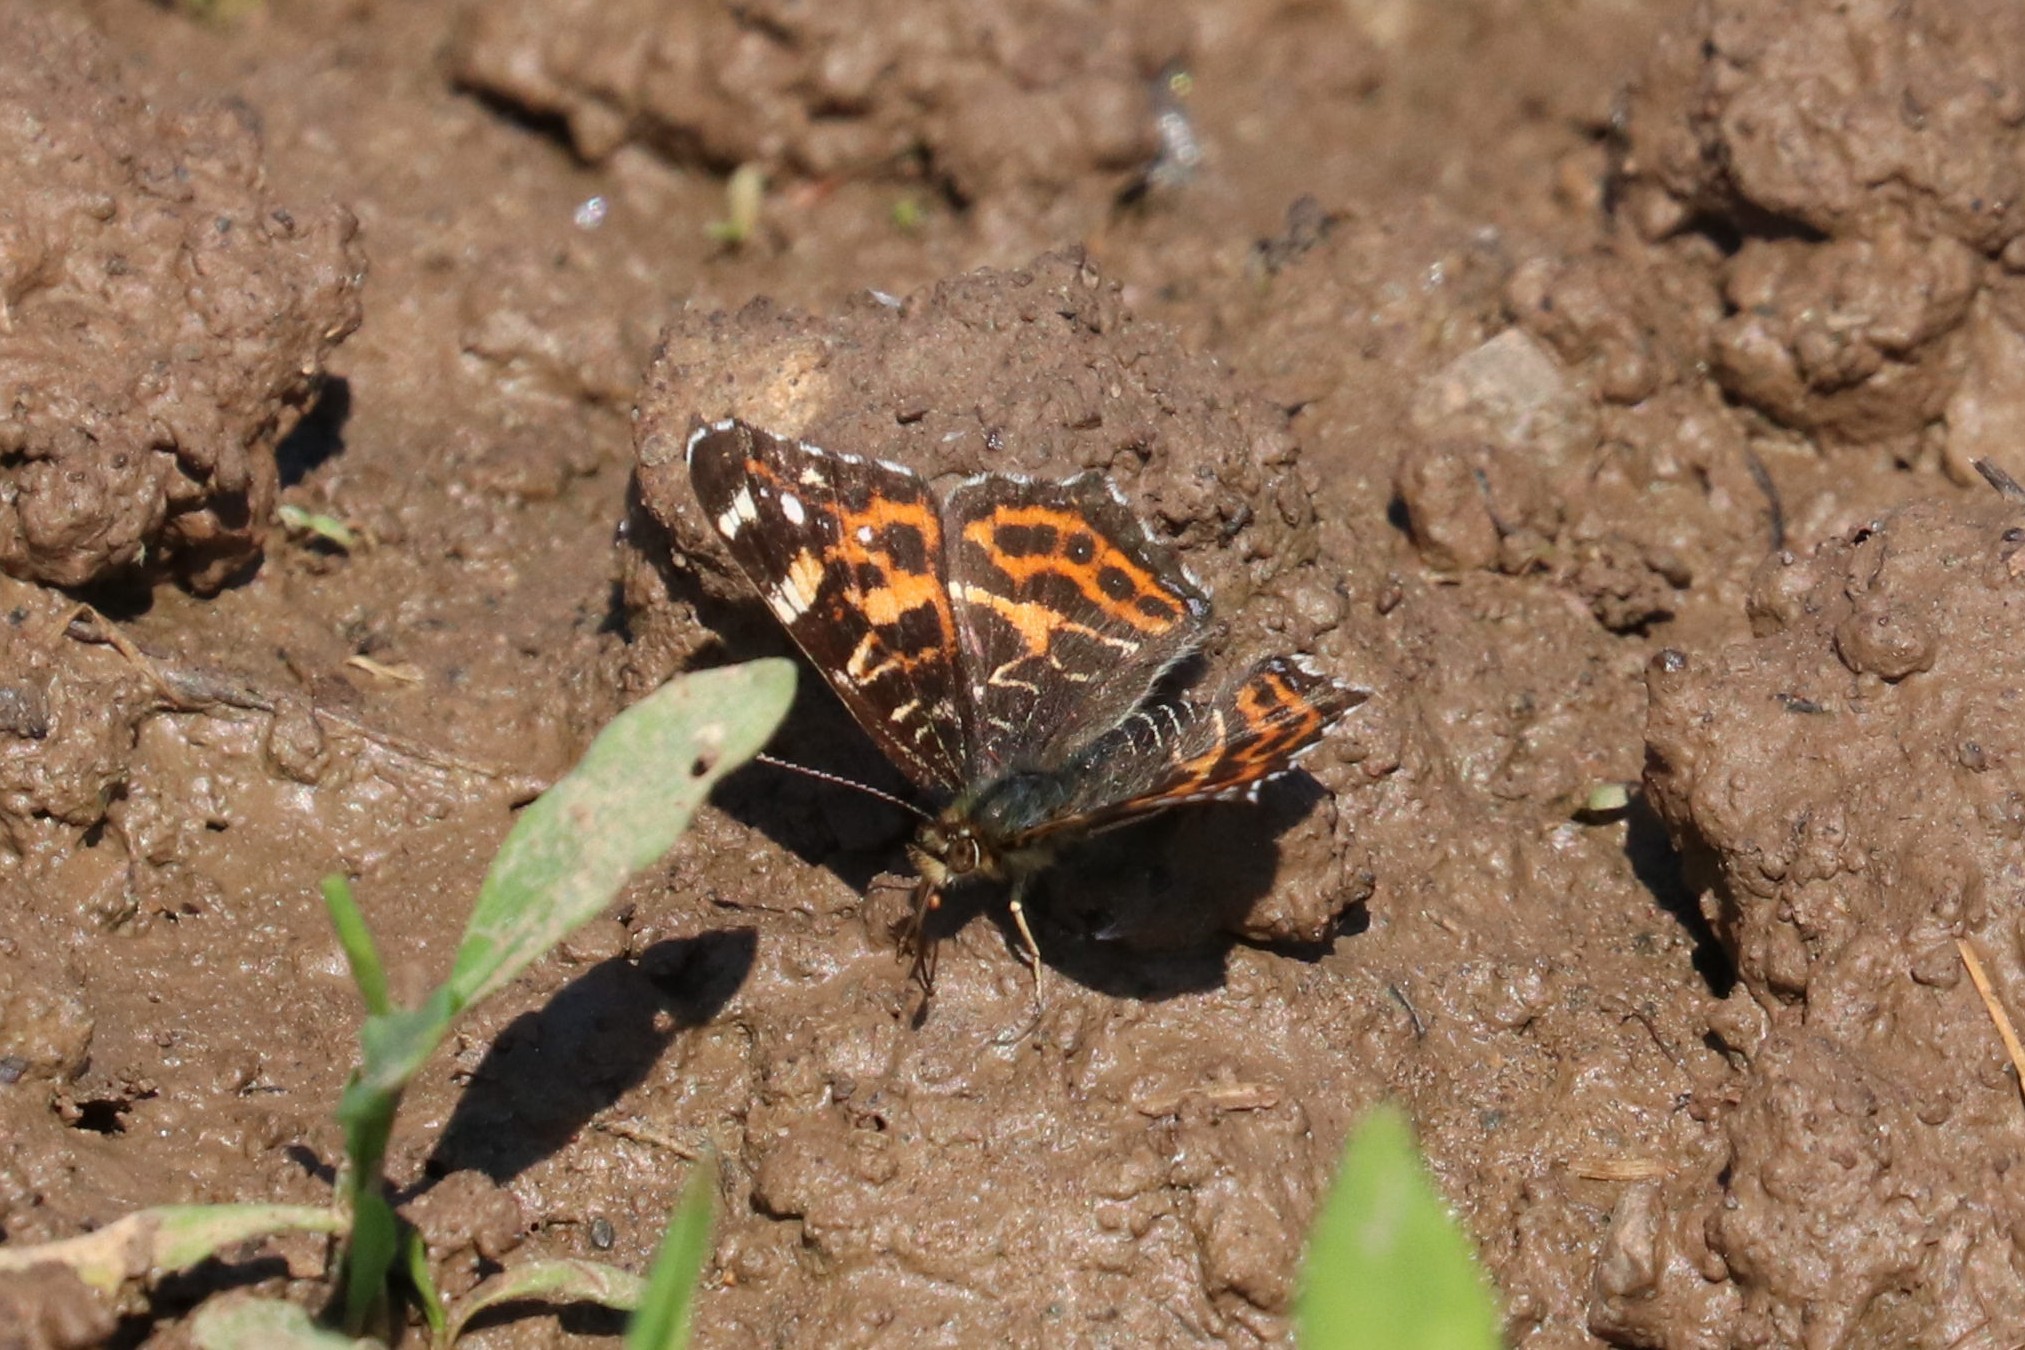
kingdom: Animalia
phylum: Arthropoda
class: Insecta
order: Lepidoptera
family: Nymphalidae
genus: Araschnia
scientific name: Araschnia levana
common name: Map butterfly
